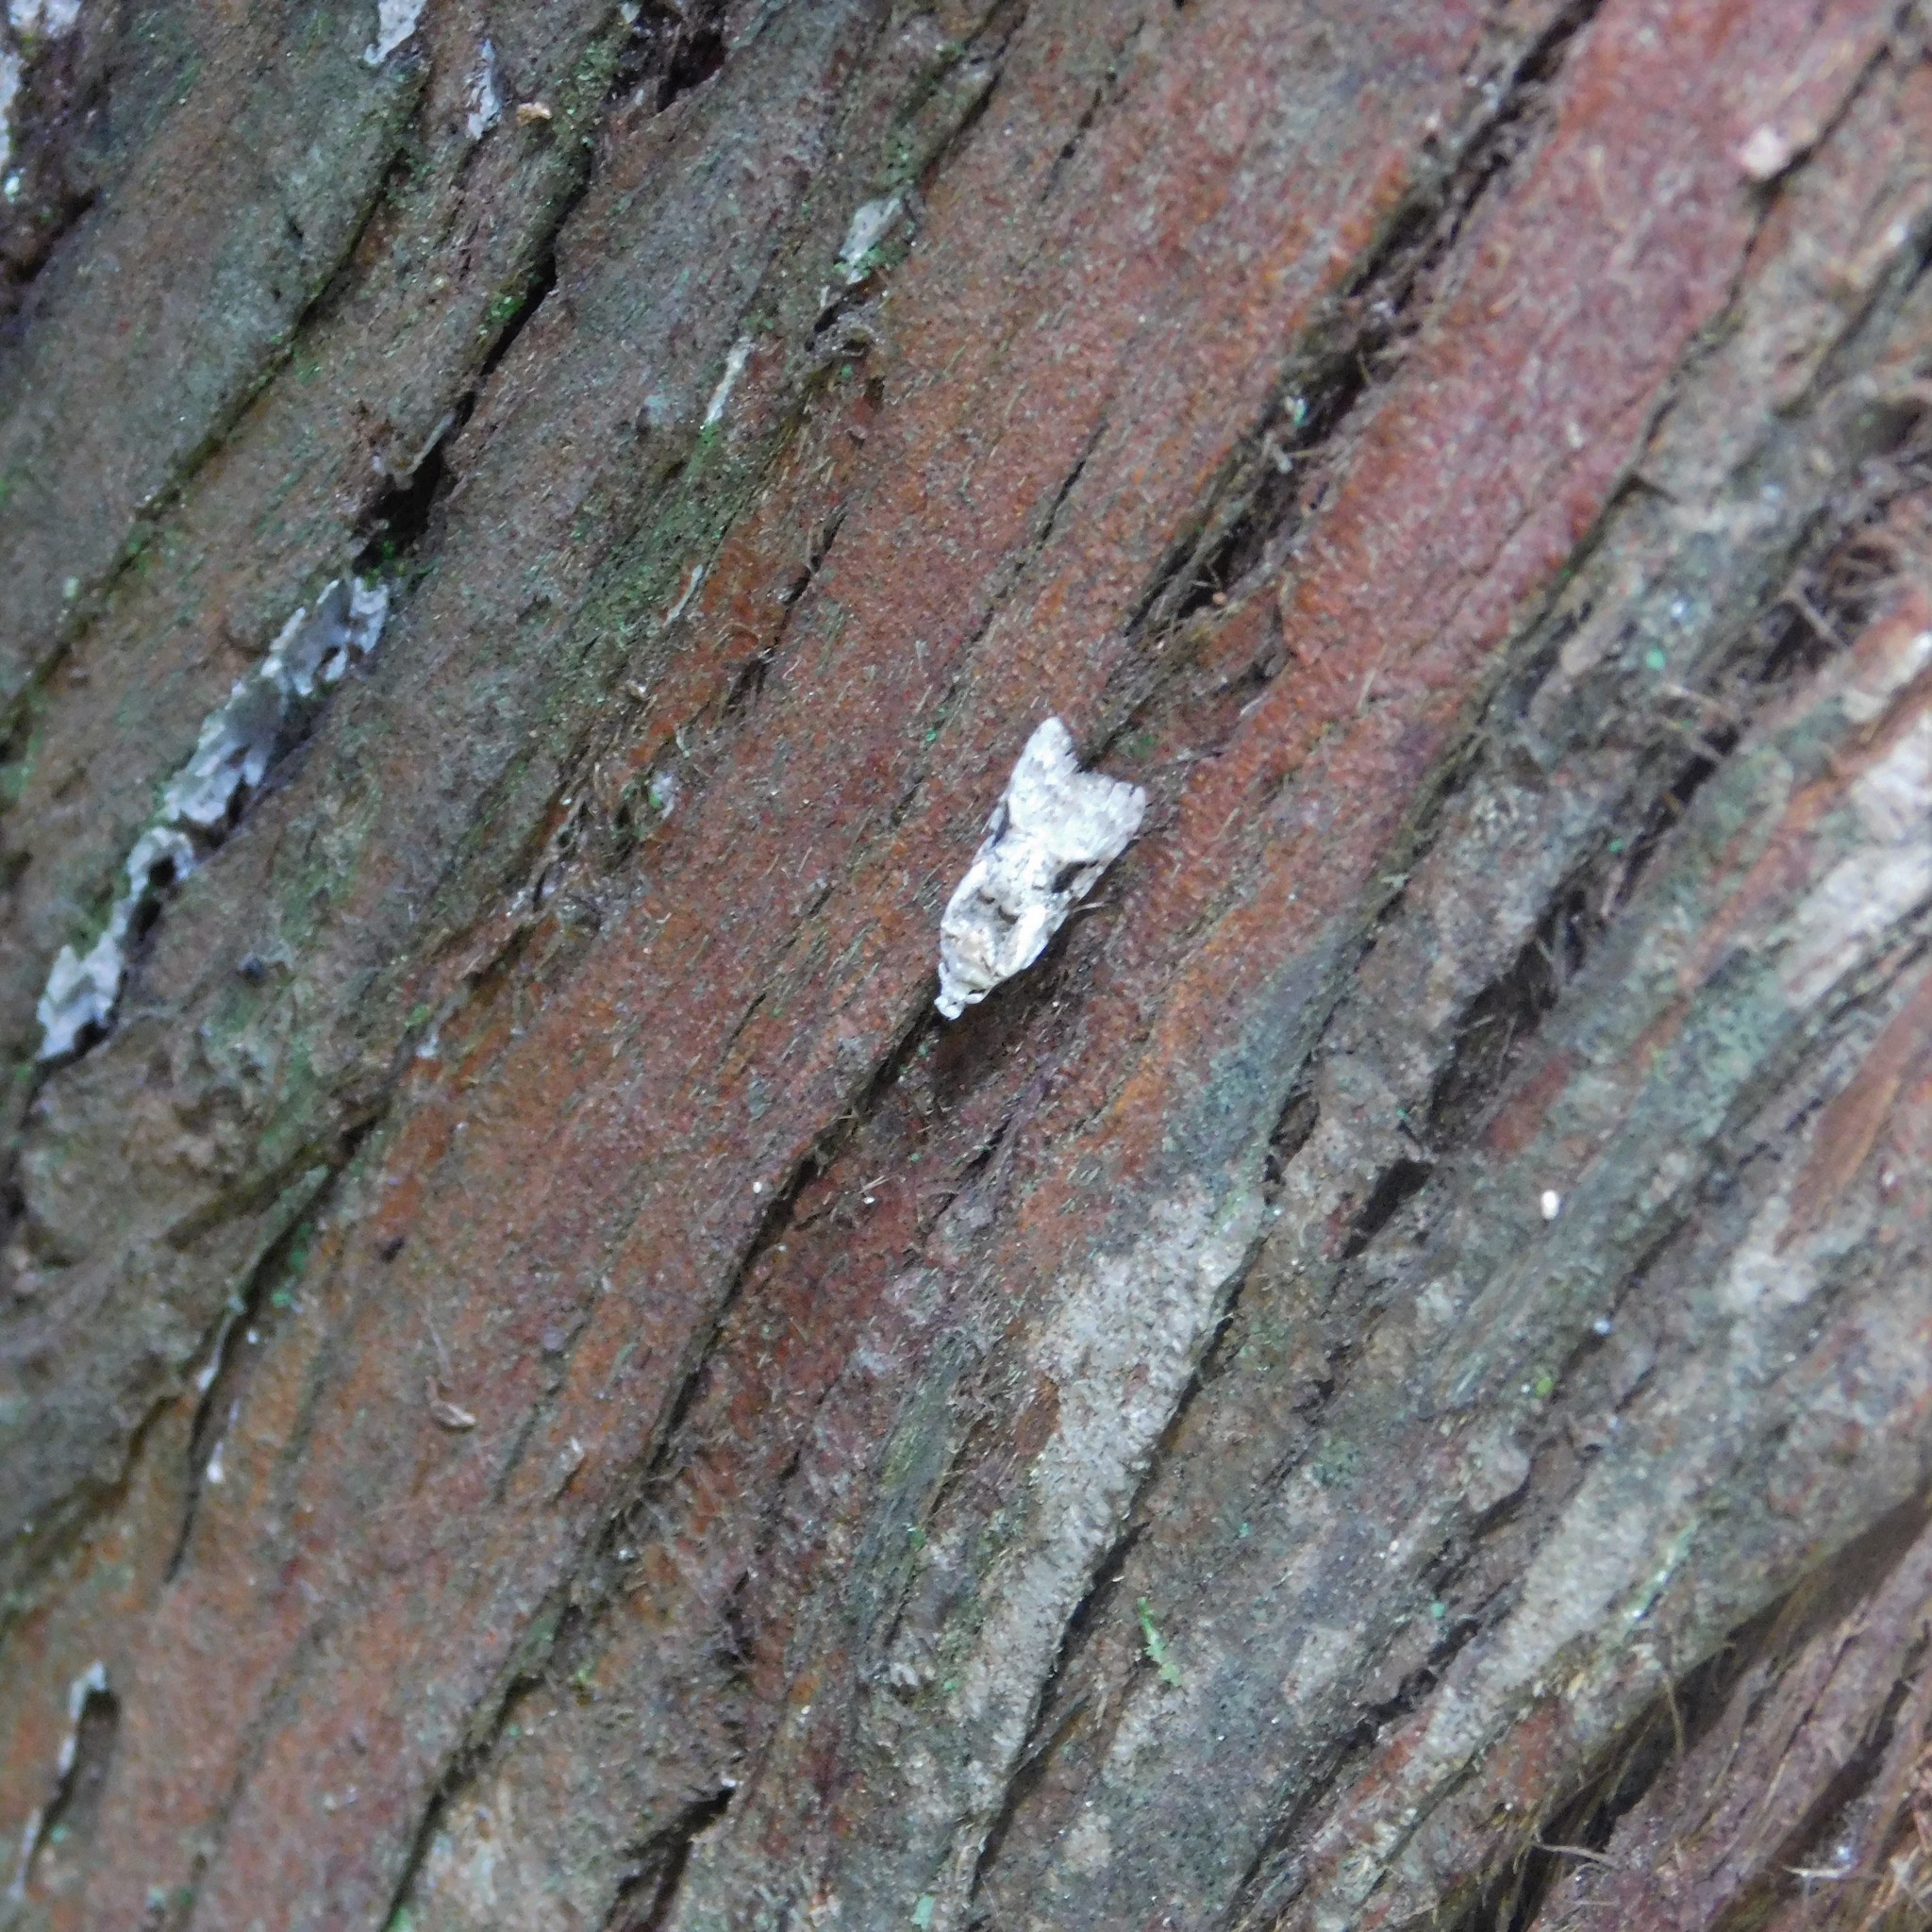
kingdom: Animalia
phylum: Arthropoda
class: Insecta
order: Lepidoptera
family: Carposinidae
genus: Coscinoptycha
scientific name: Coscinoptycha improbana
